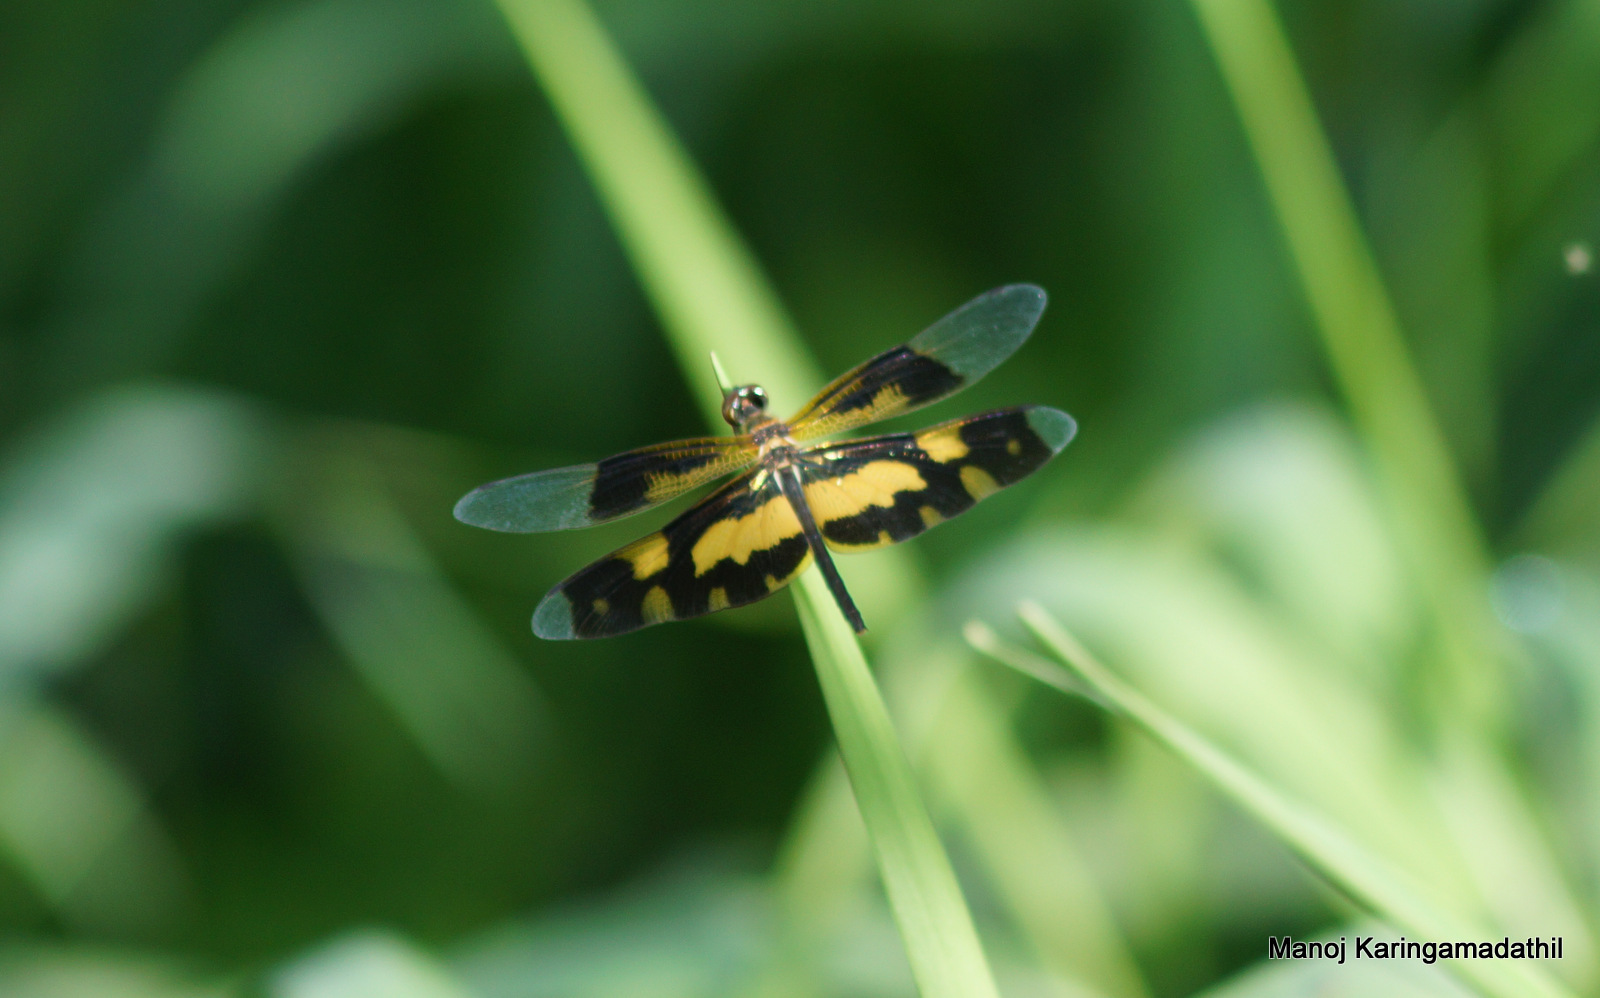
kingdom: Animalia
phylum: Arthropoda
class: Insecta
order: Odonata
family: Libellulidae
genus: Rhyothemis
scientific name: Rhyothemis variegata
